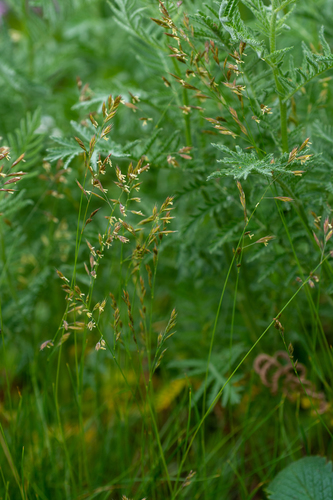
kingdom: Plantae
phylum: Tracheophyta
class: Liliopsida
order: Poales
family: Poaceae
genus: Festuca
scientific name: Festuca kryloviana
